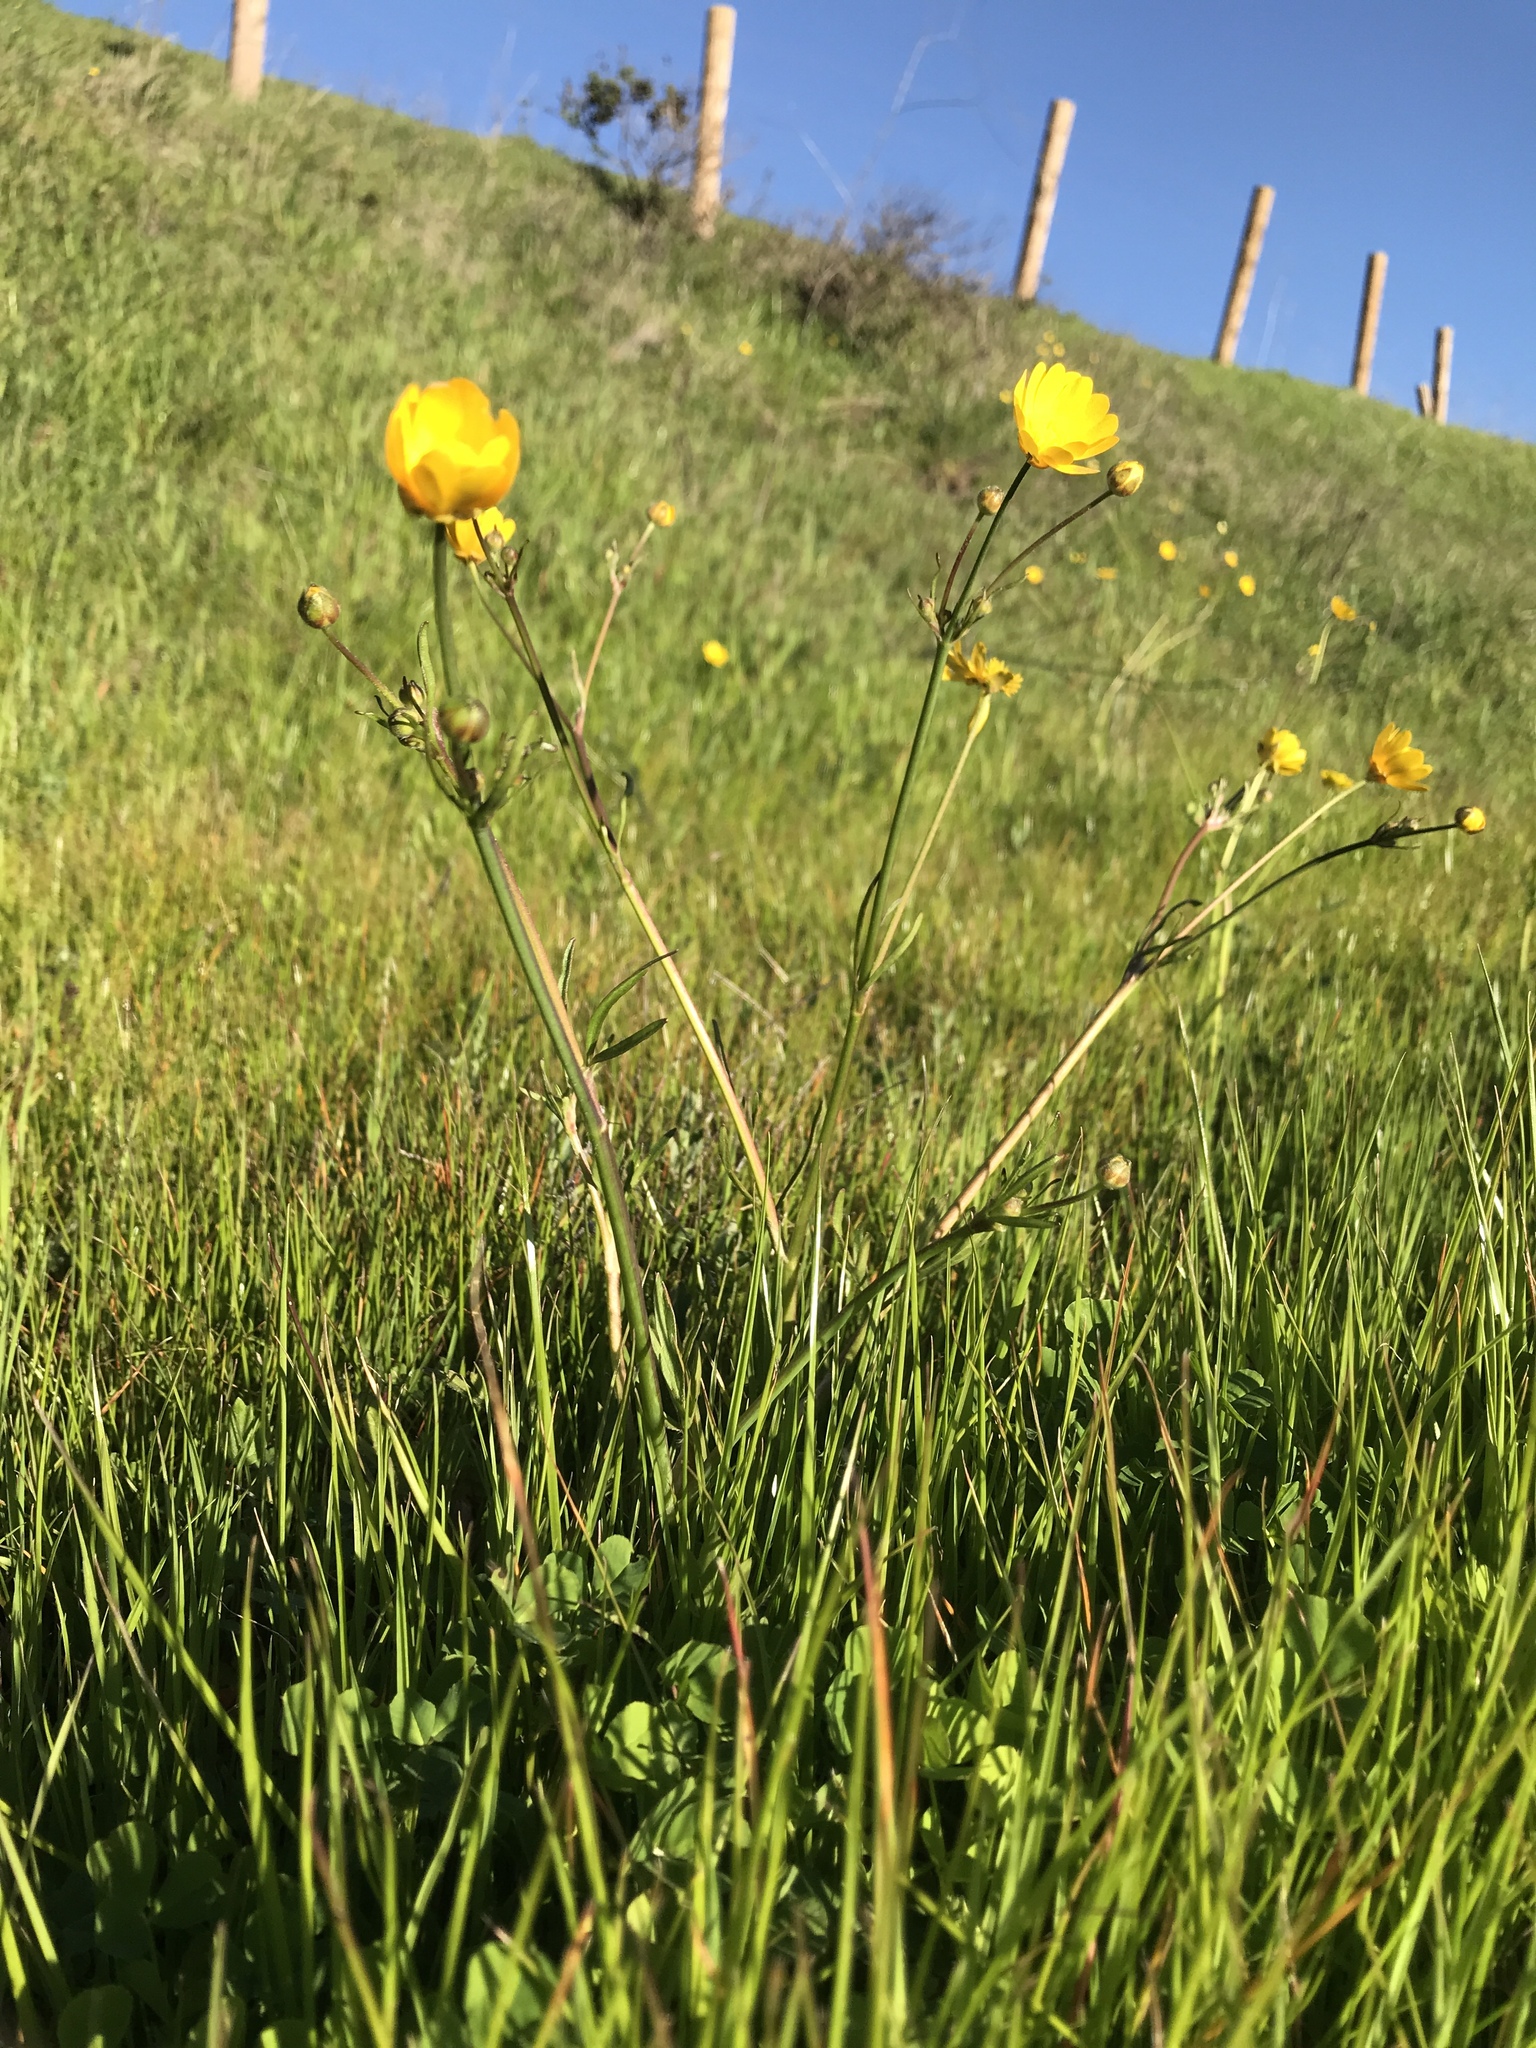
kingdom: Plantae
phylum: Tracheophyta
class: Magnoliopsida
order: Ranunculales
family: Ranunculaceae
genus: Ranunculus
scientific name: Ranunculus californicus
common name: California buttercup
